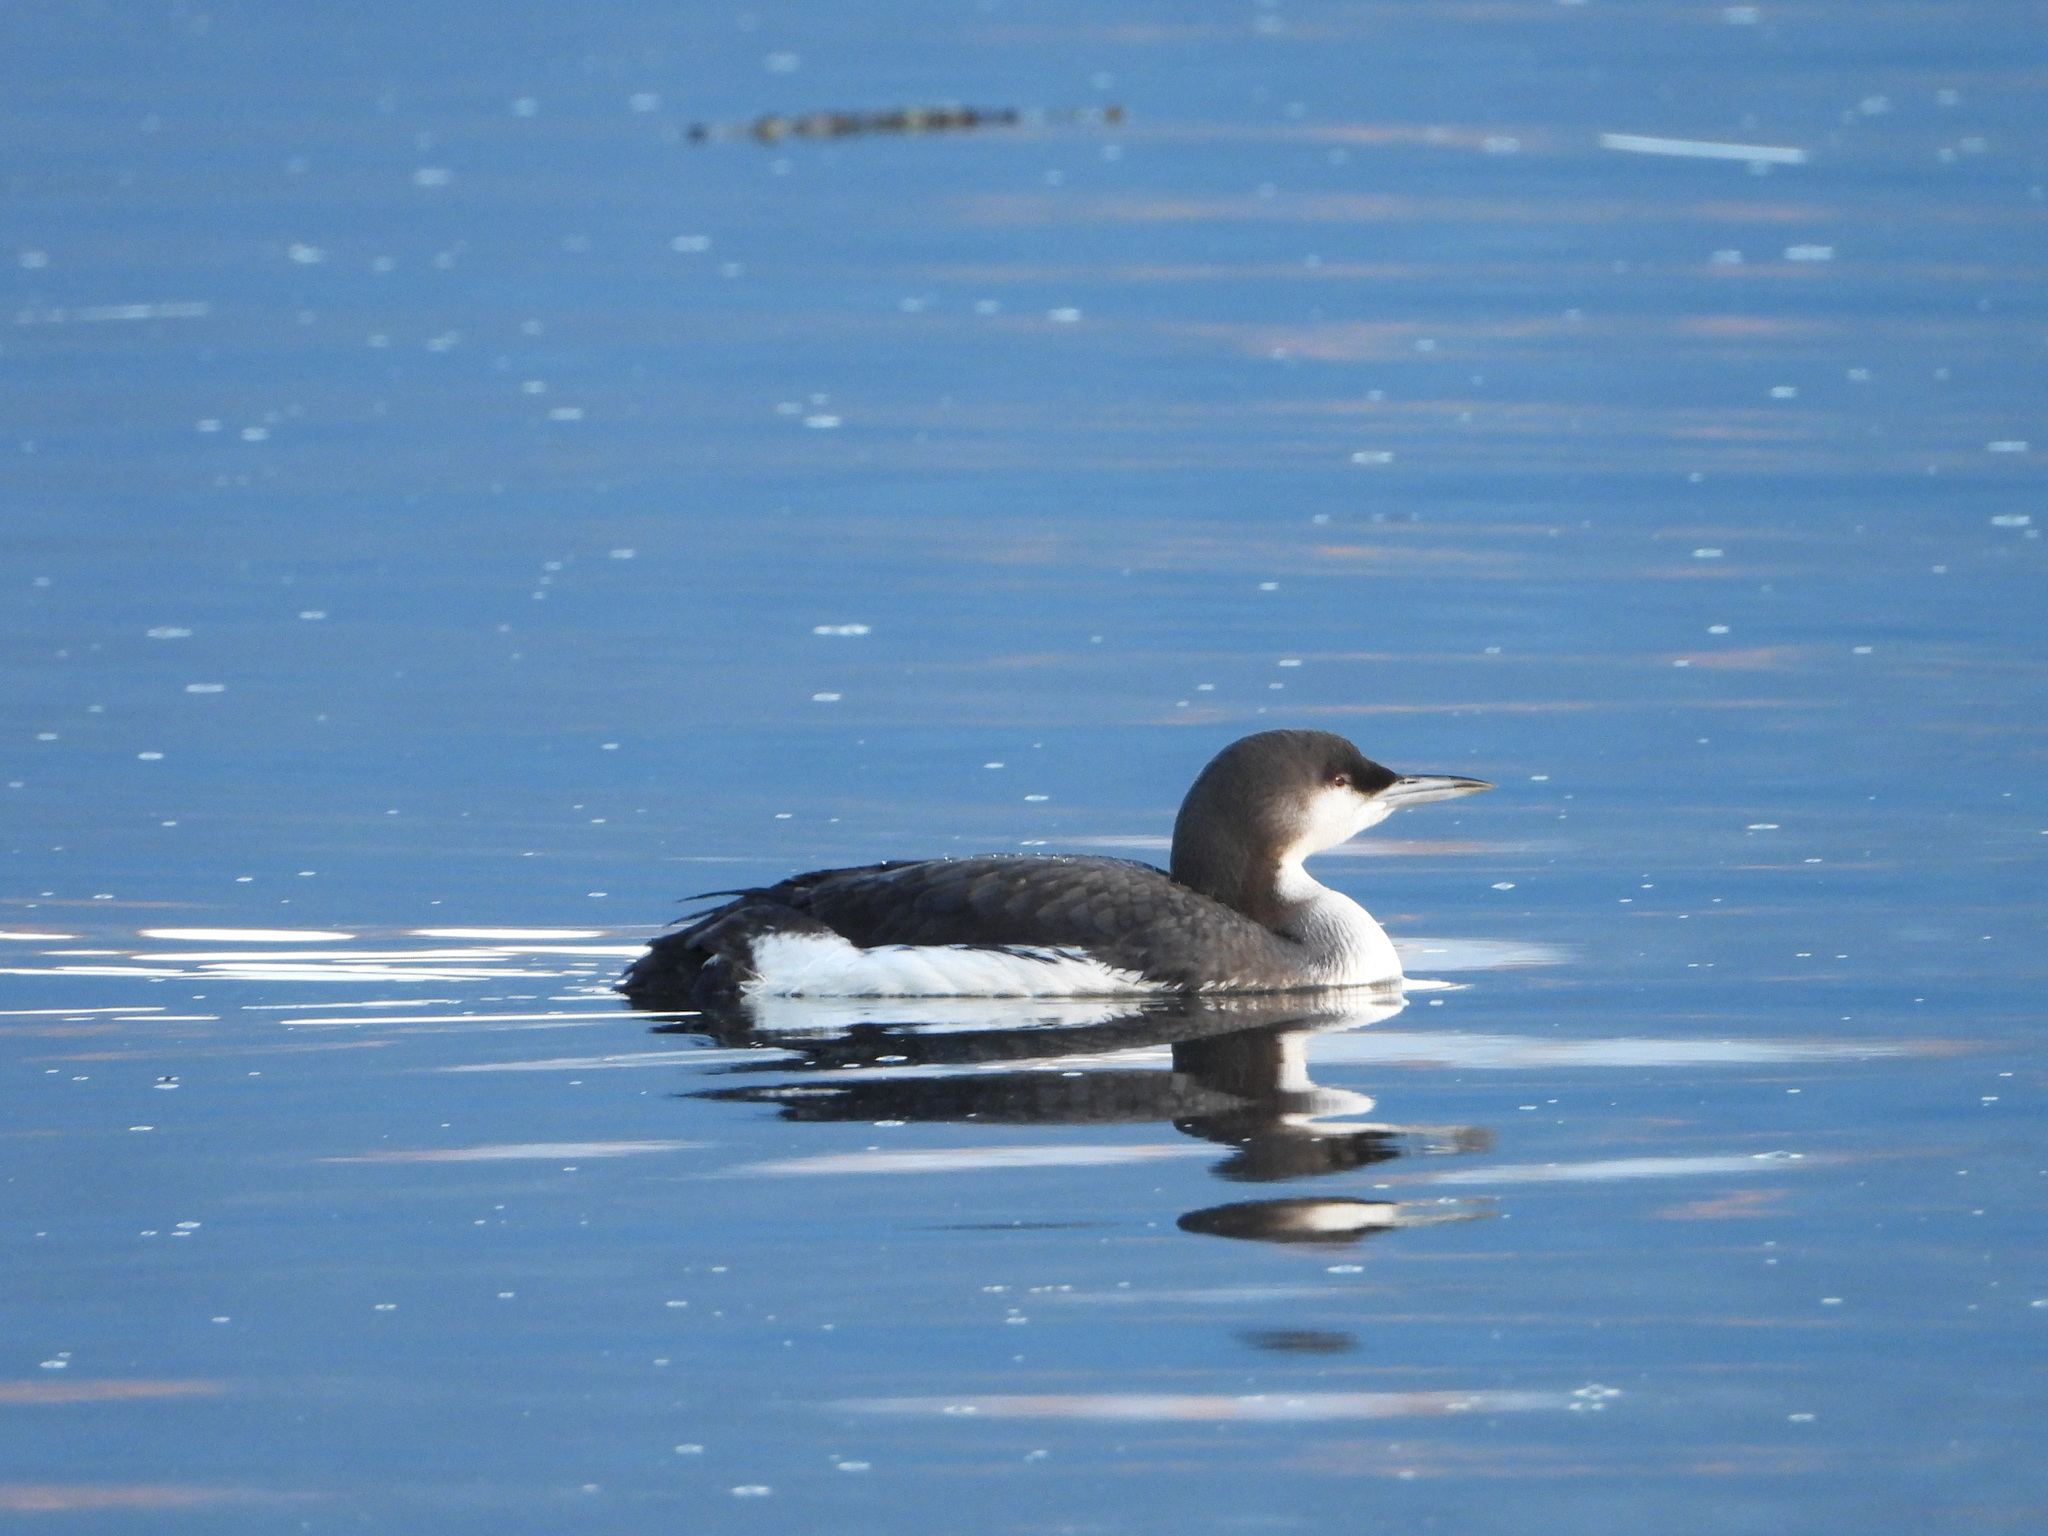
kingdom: Animalia
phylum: Chordata
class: Aves
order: Gaviiformes
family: Gaviidae
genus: Gavia
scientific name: Gavia arctica
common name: Black-throated loon
